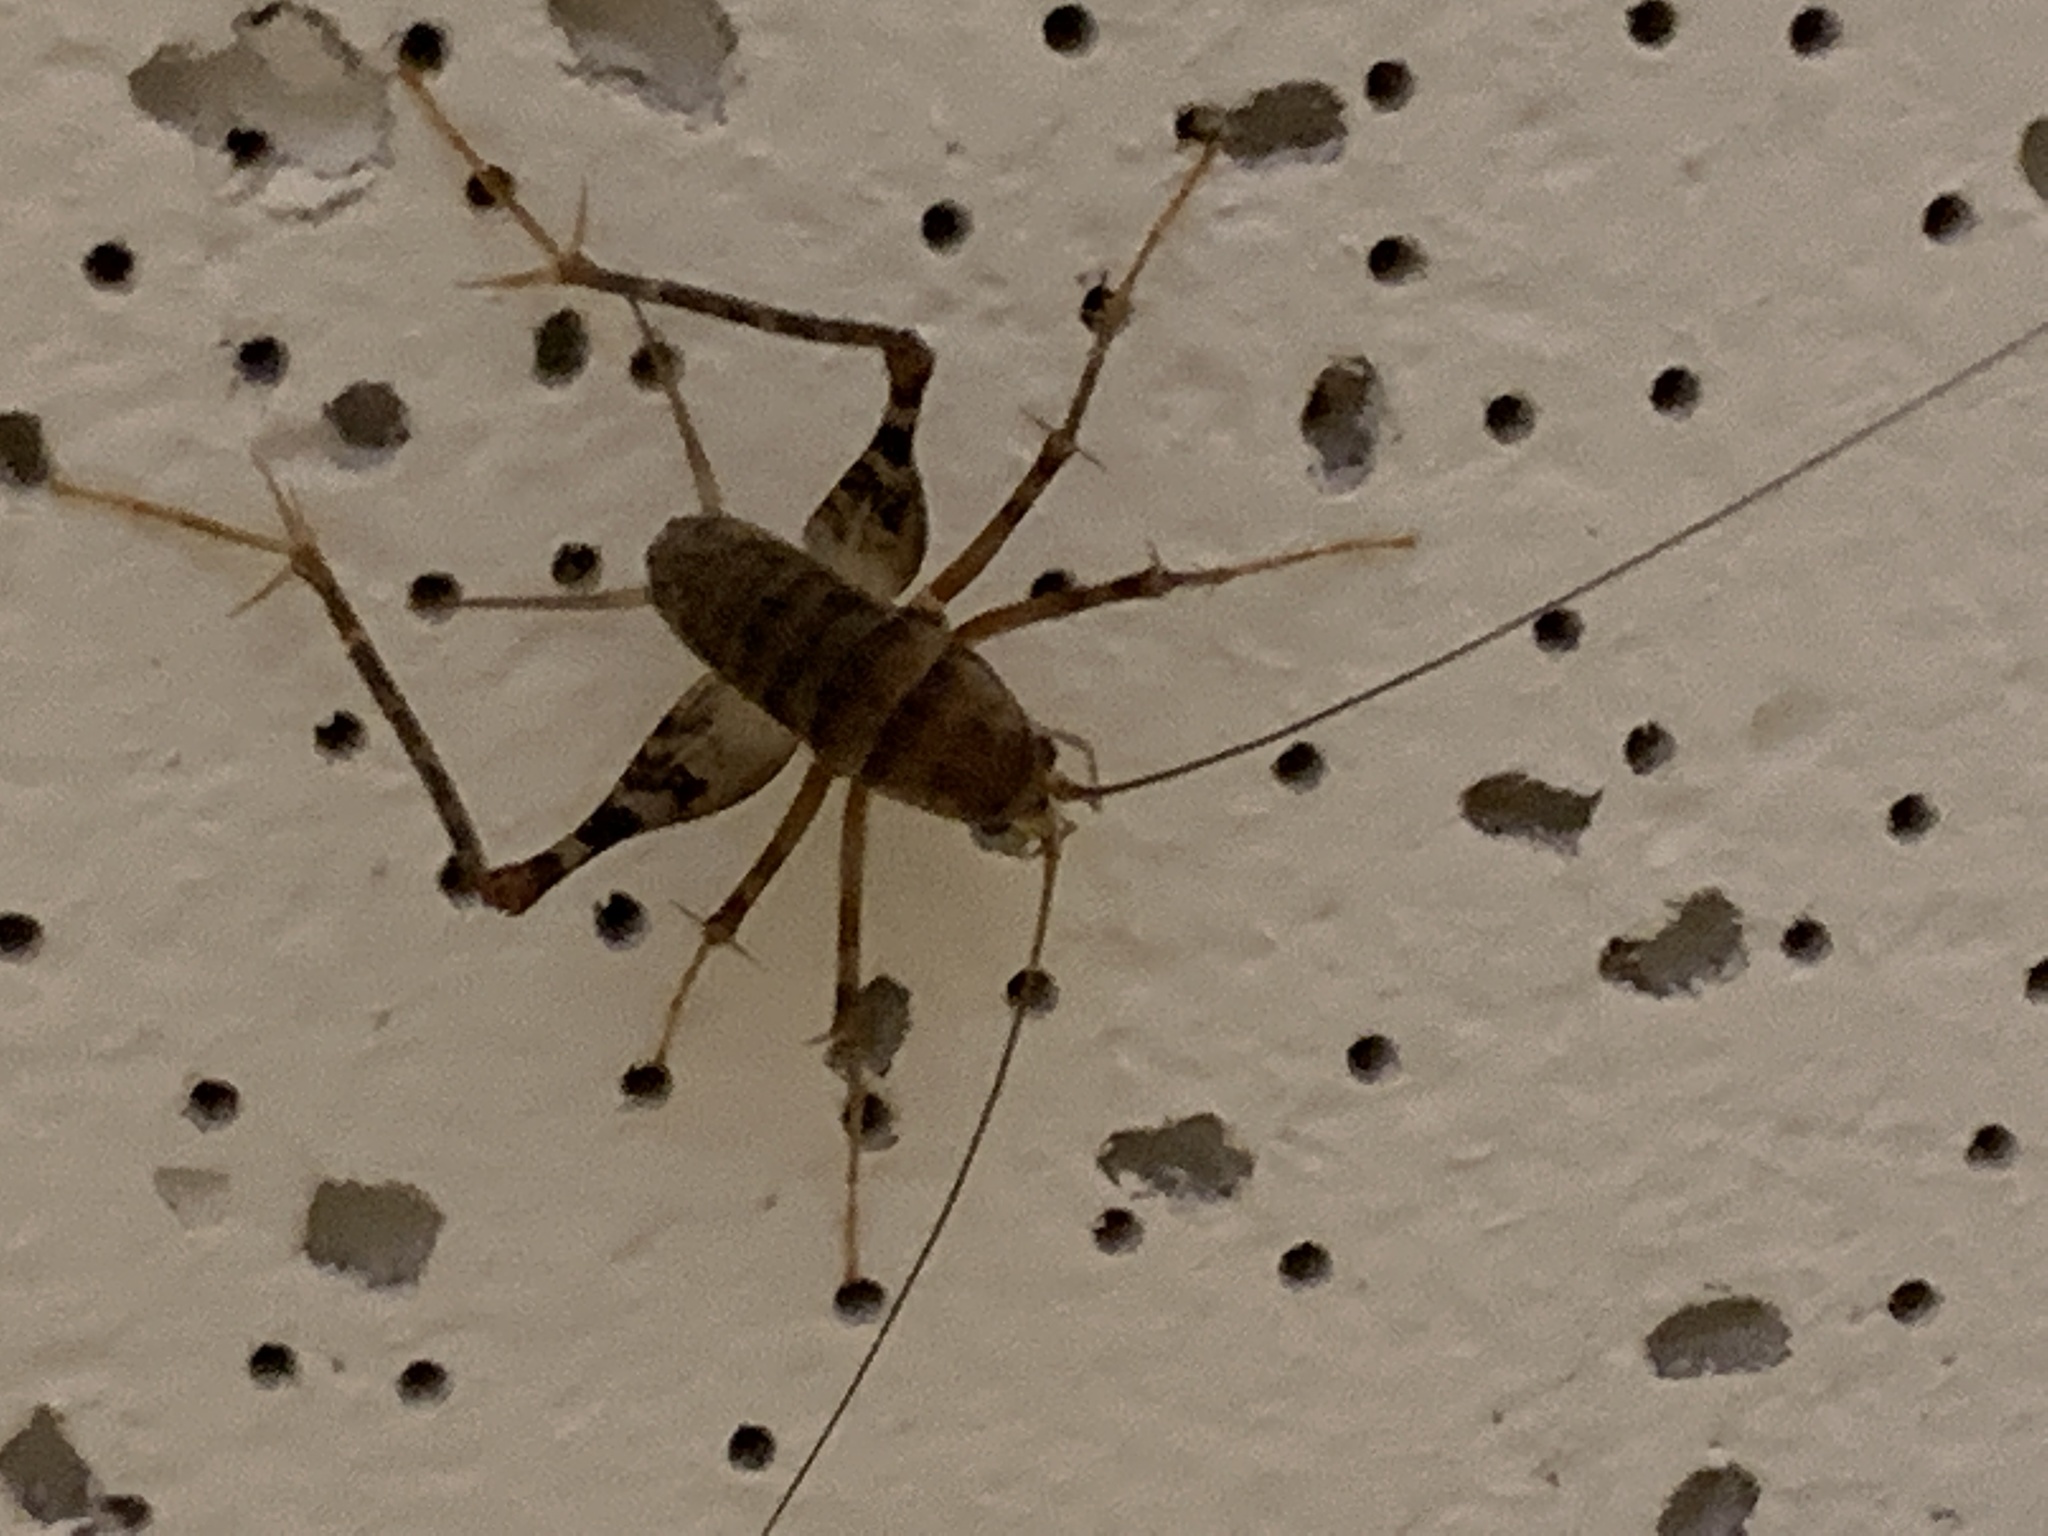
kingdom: Animalia
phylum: Arthropoda
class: Insecta
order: Orthoptera
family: Rhaphidophoridae
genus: Tachycines
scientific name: Tachycines asynamorus
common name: Greenhouse camel cricket
